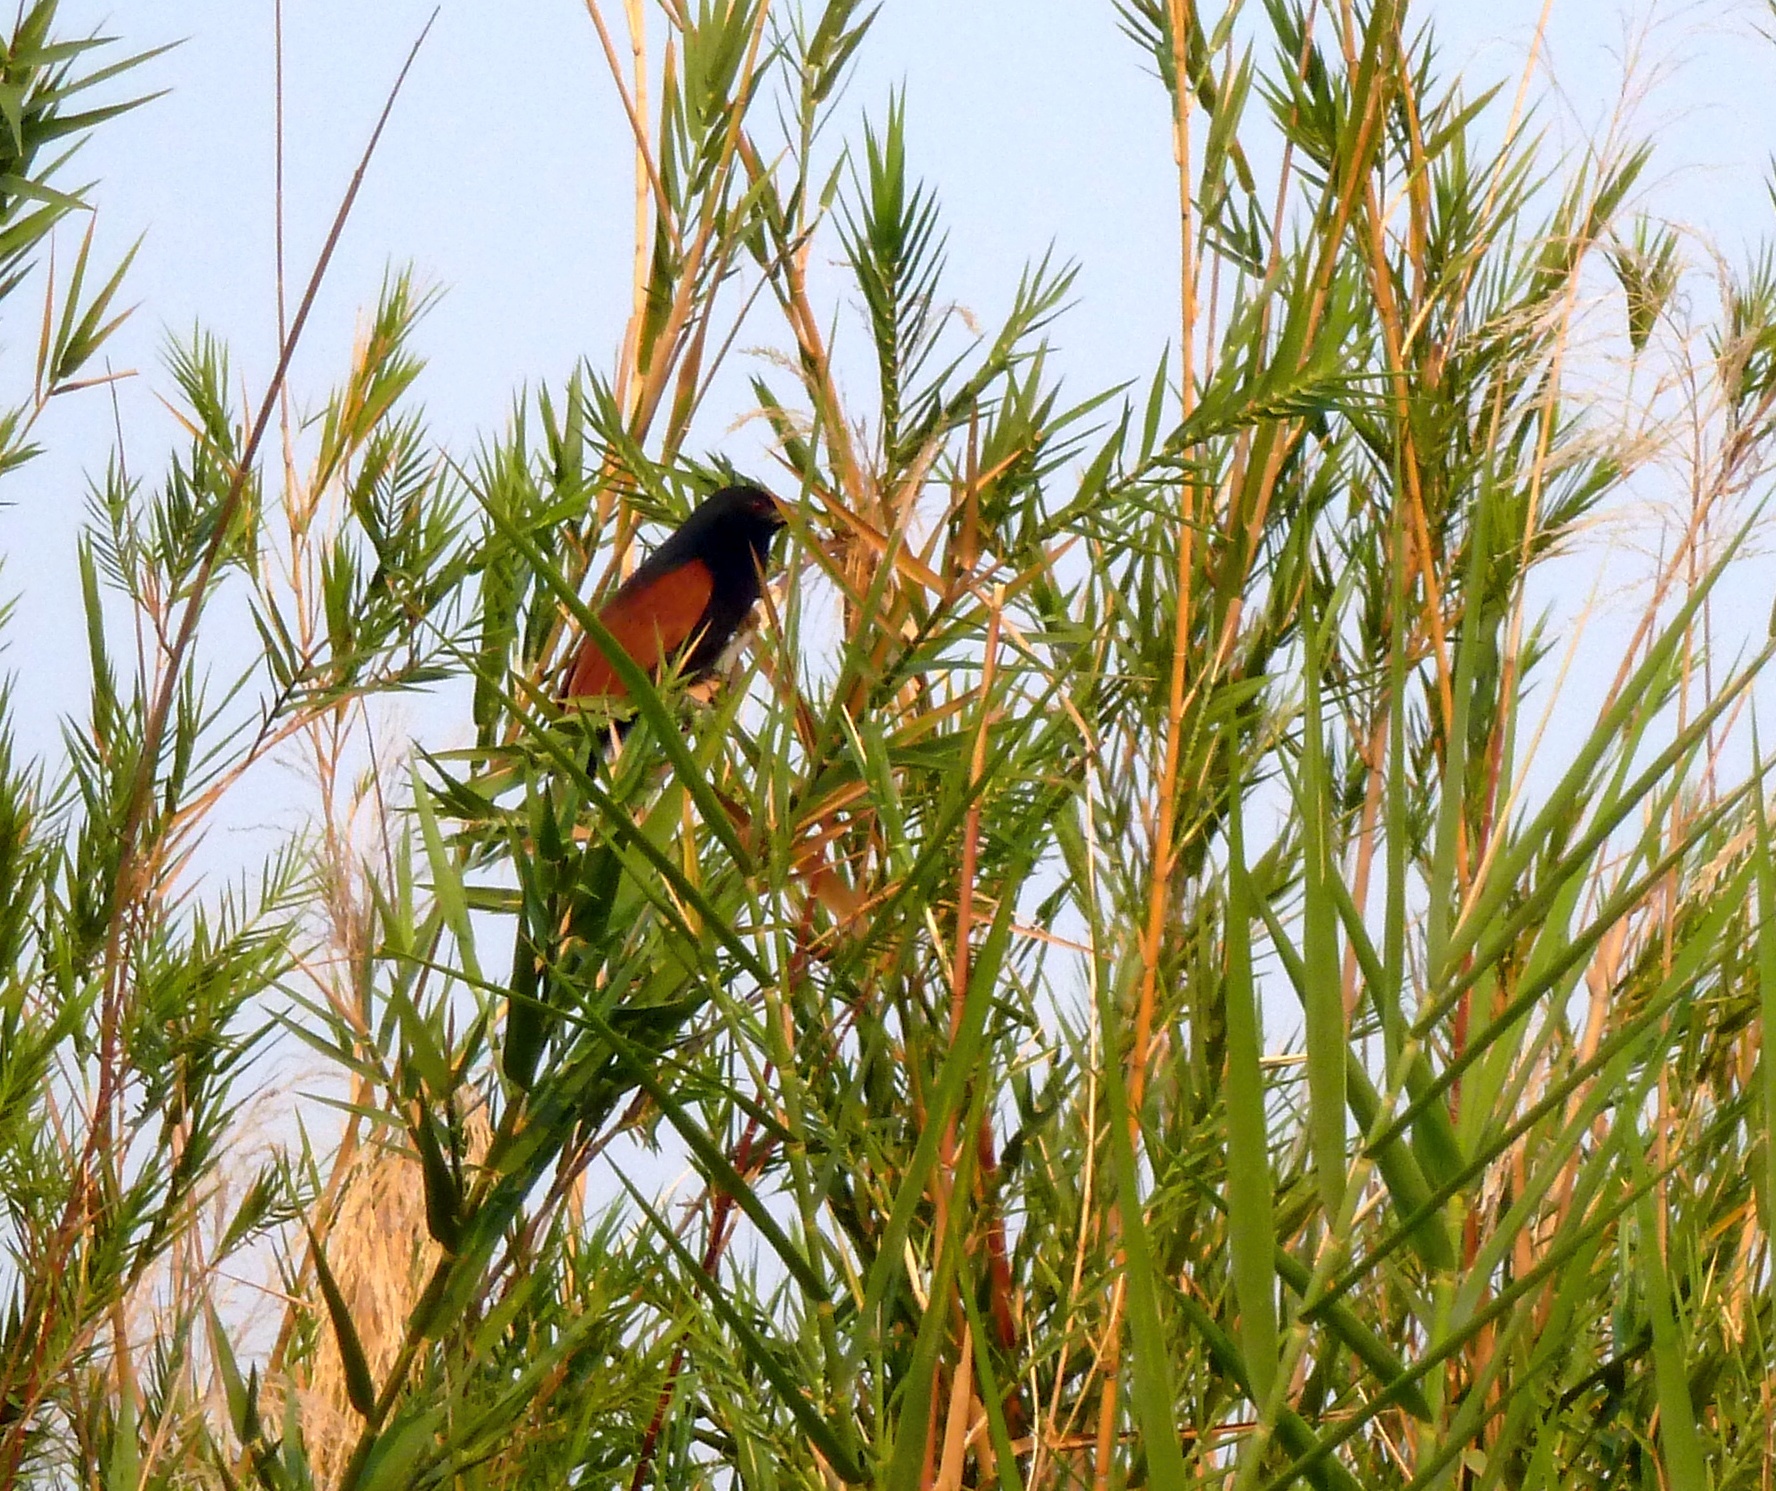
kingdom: Animalia
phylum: Chordata
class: Aves
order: Cuculiformes
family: Cuculidae
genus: Centropus
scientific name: Centropus toulou
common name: Malagasy coucal
